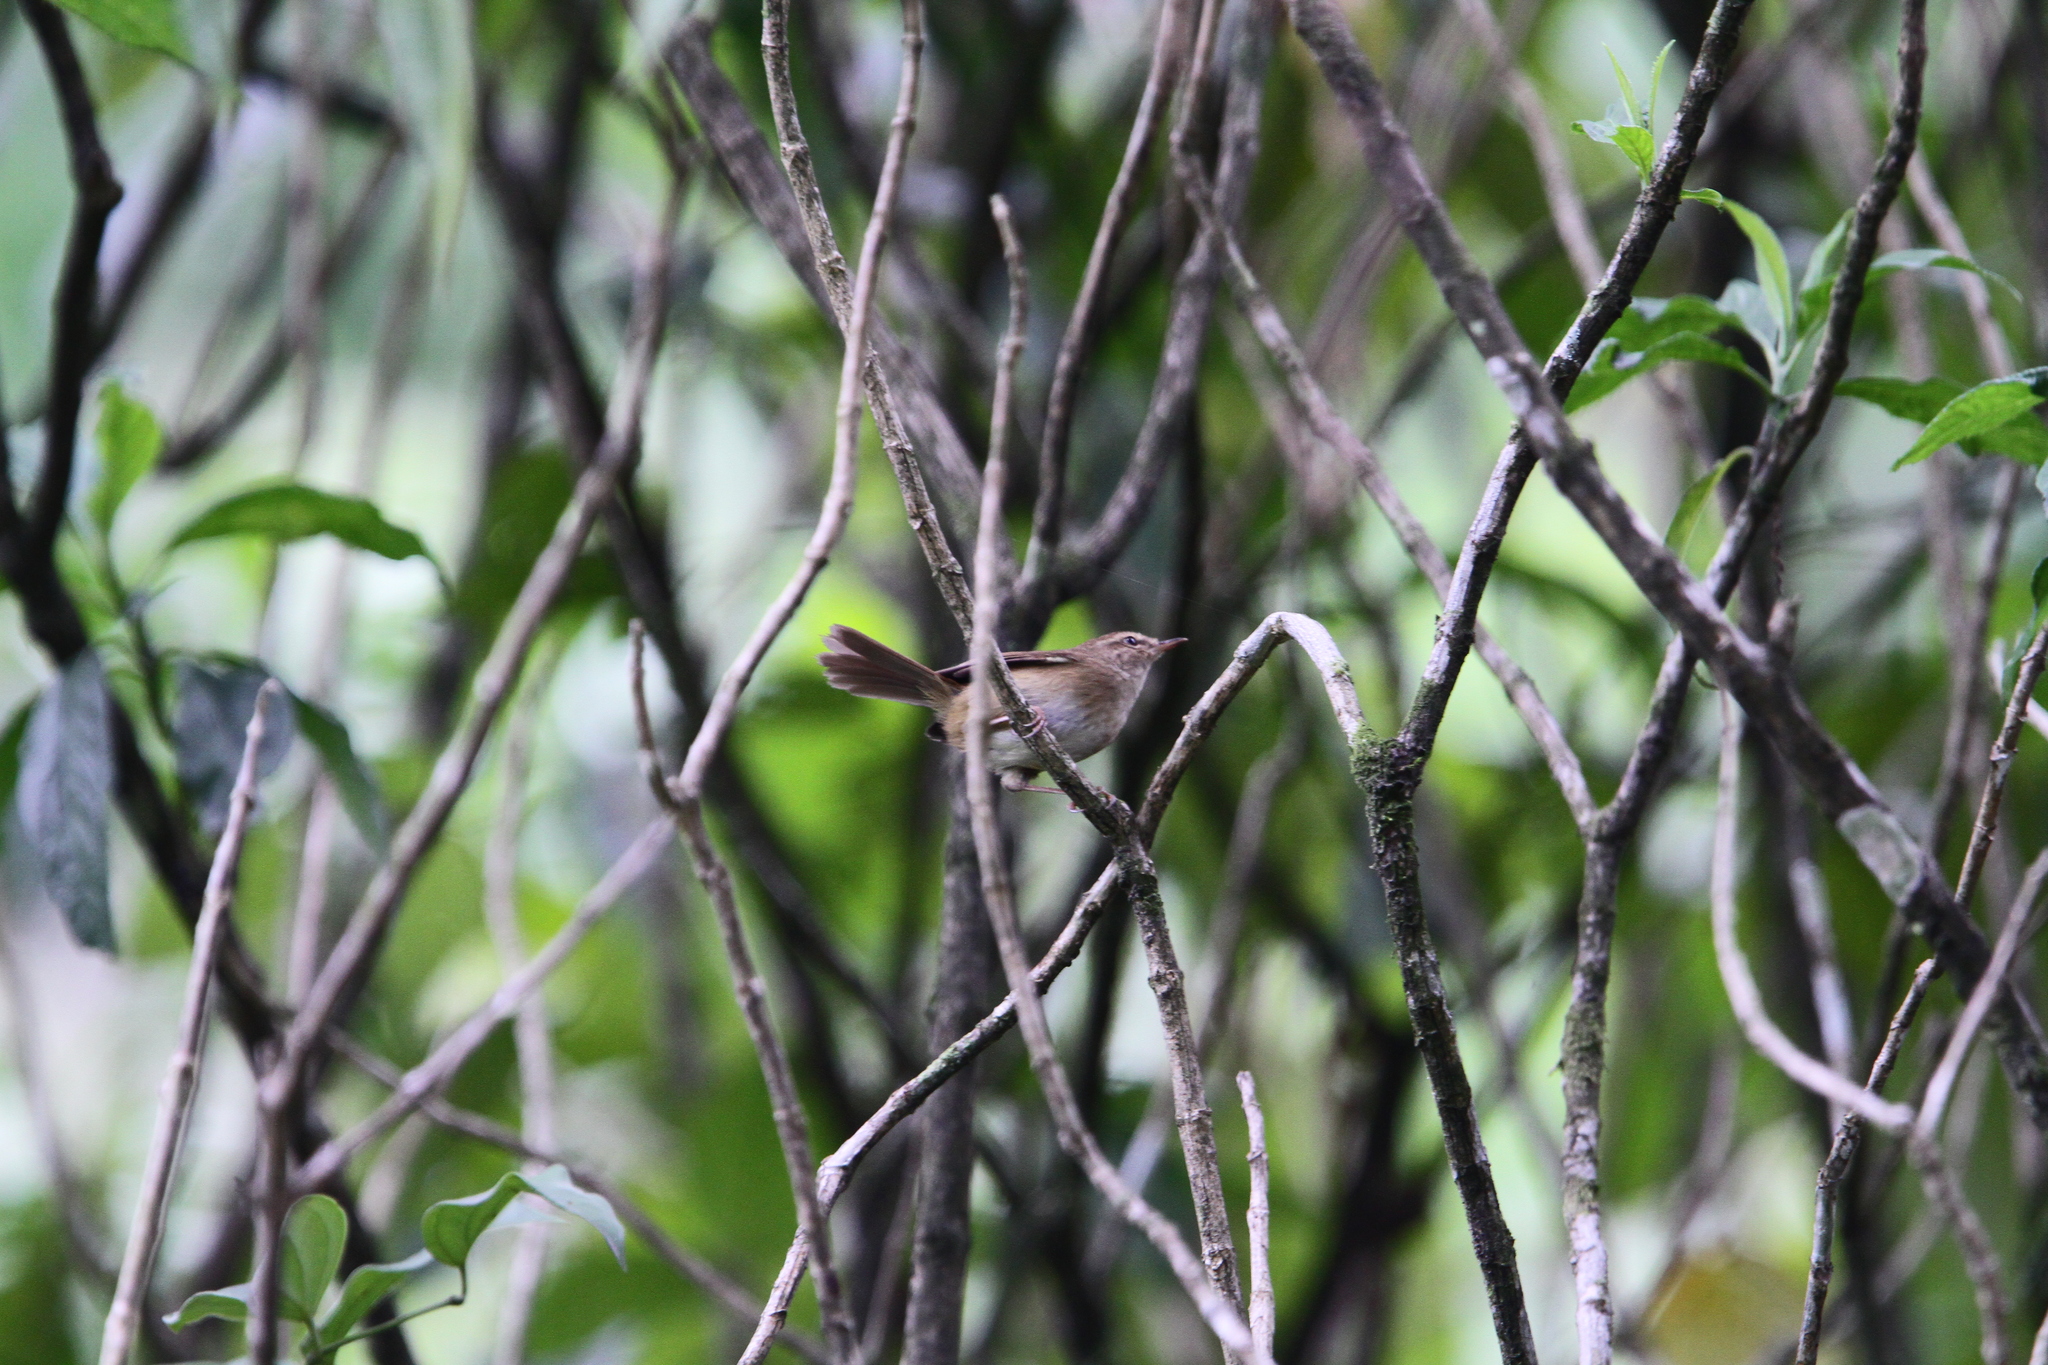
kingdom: Animalia
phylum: Chordata
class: Aves
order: Passeriformes
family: Cettiidae
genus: Horornis
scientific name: Horornis fortipes
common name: Brown-flanked bush warbler
